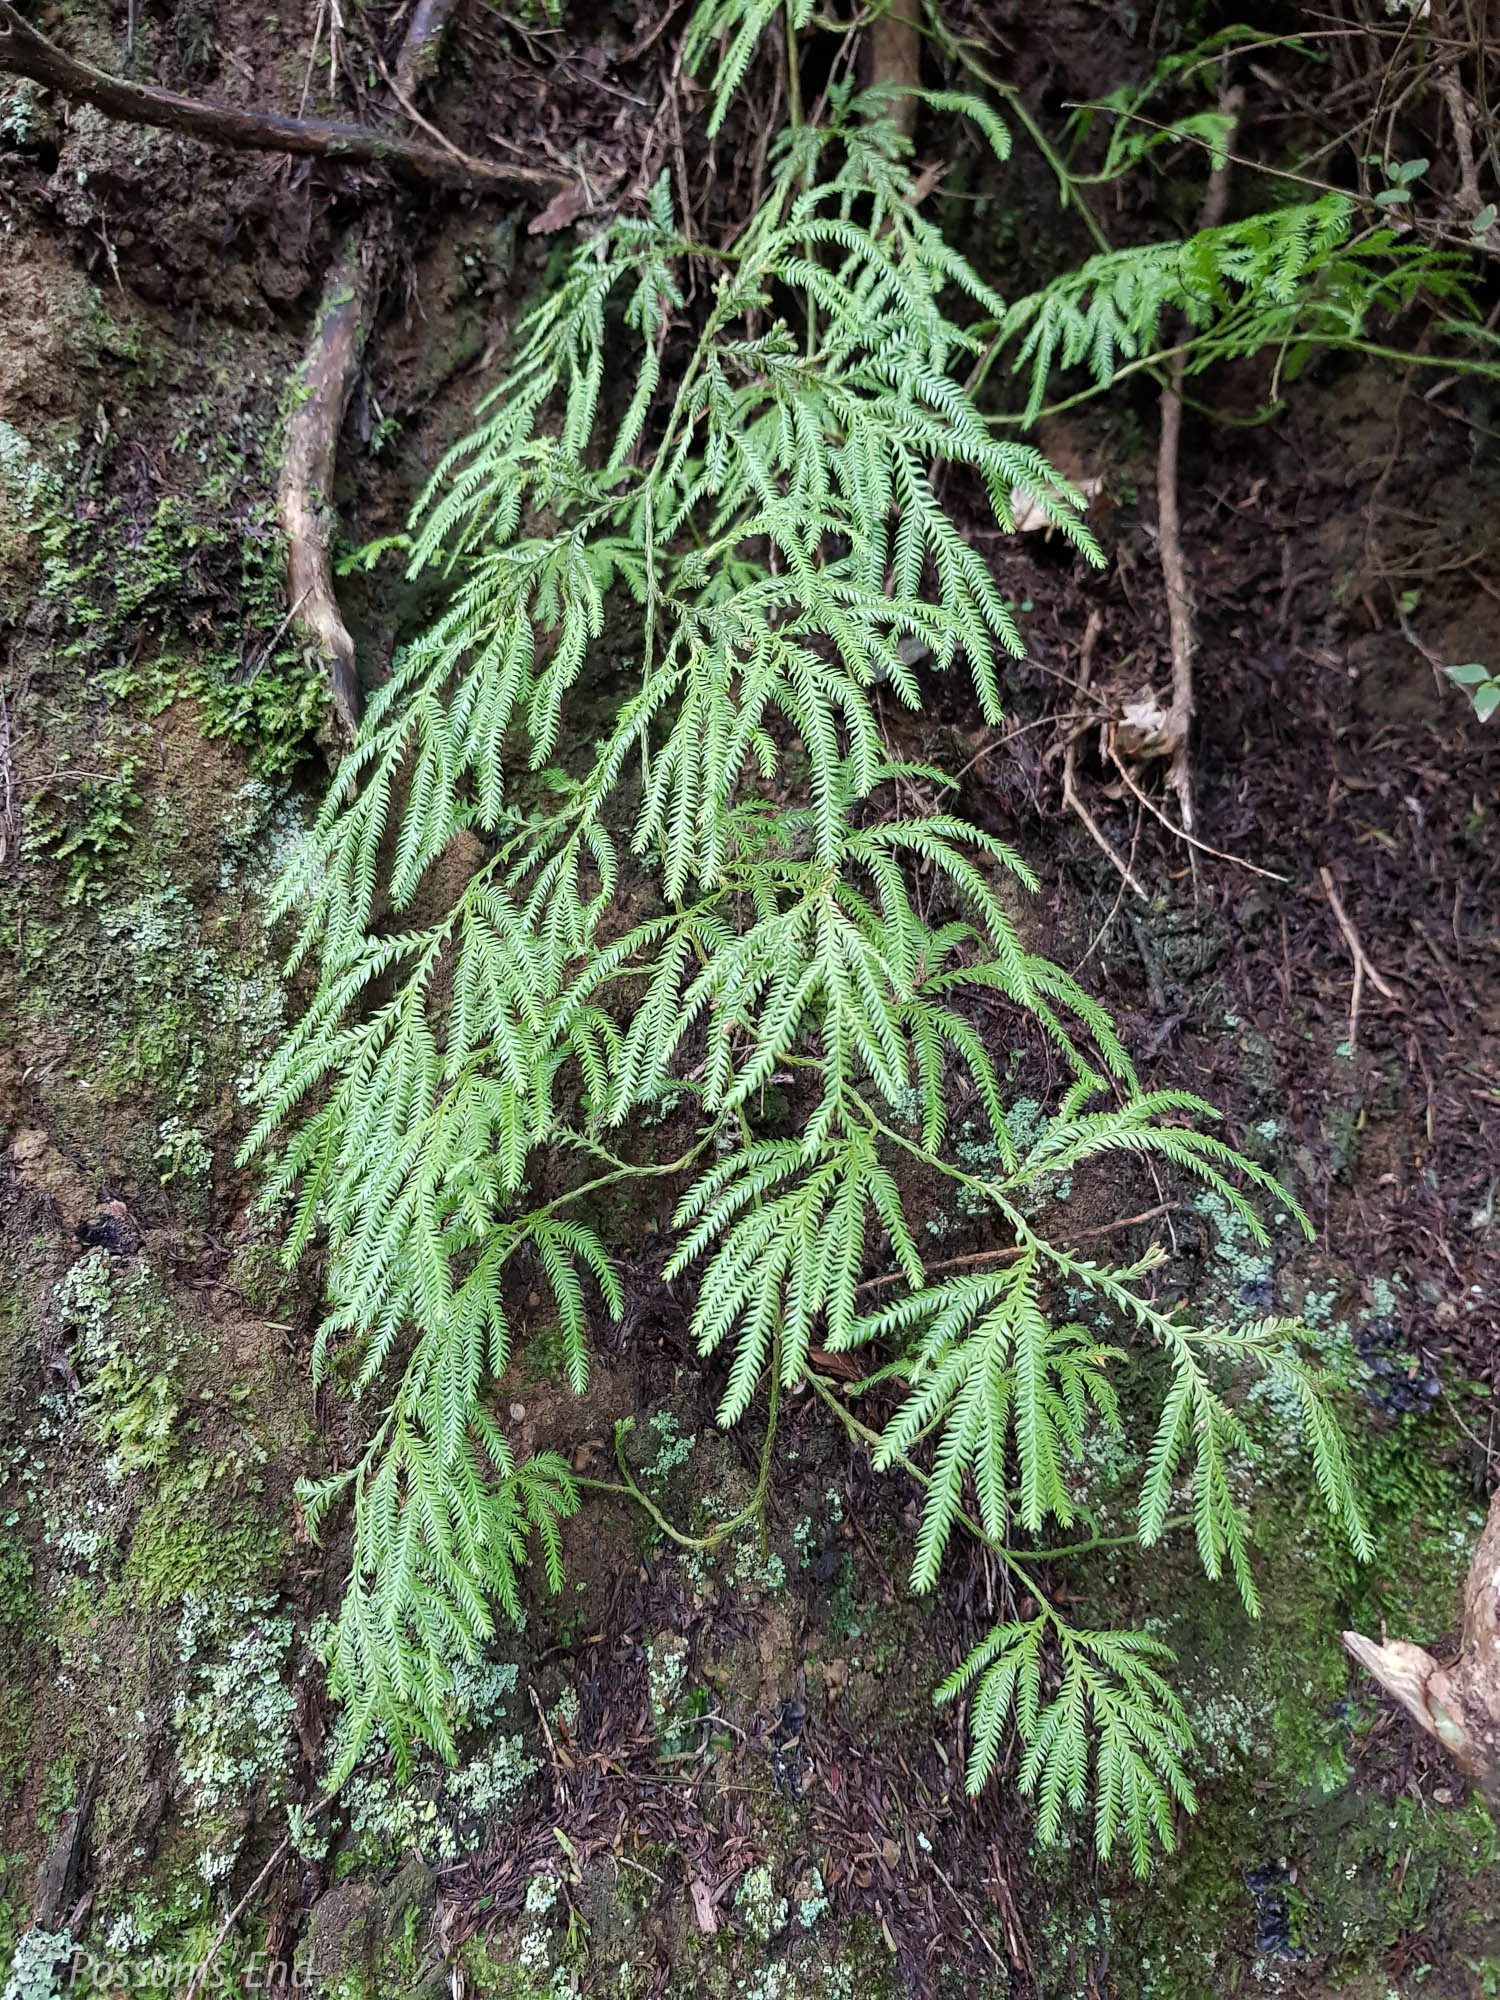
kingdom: Plantae
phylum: Tracheophyta
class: Lycopodiopsida
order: Lycopodiales
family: Lycopodiaceae
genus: Lycopodium
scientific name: Lycopodium volubile
